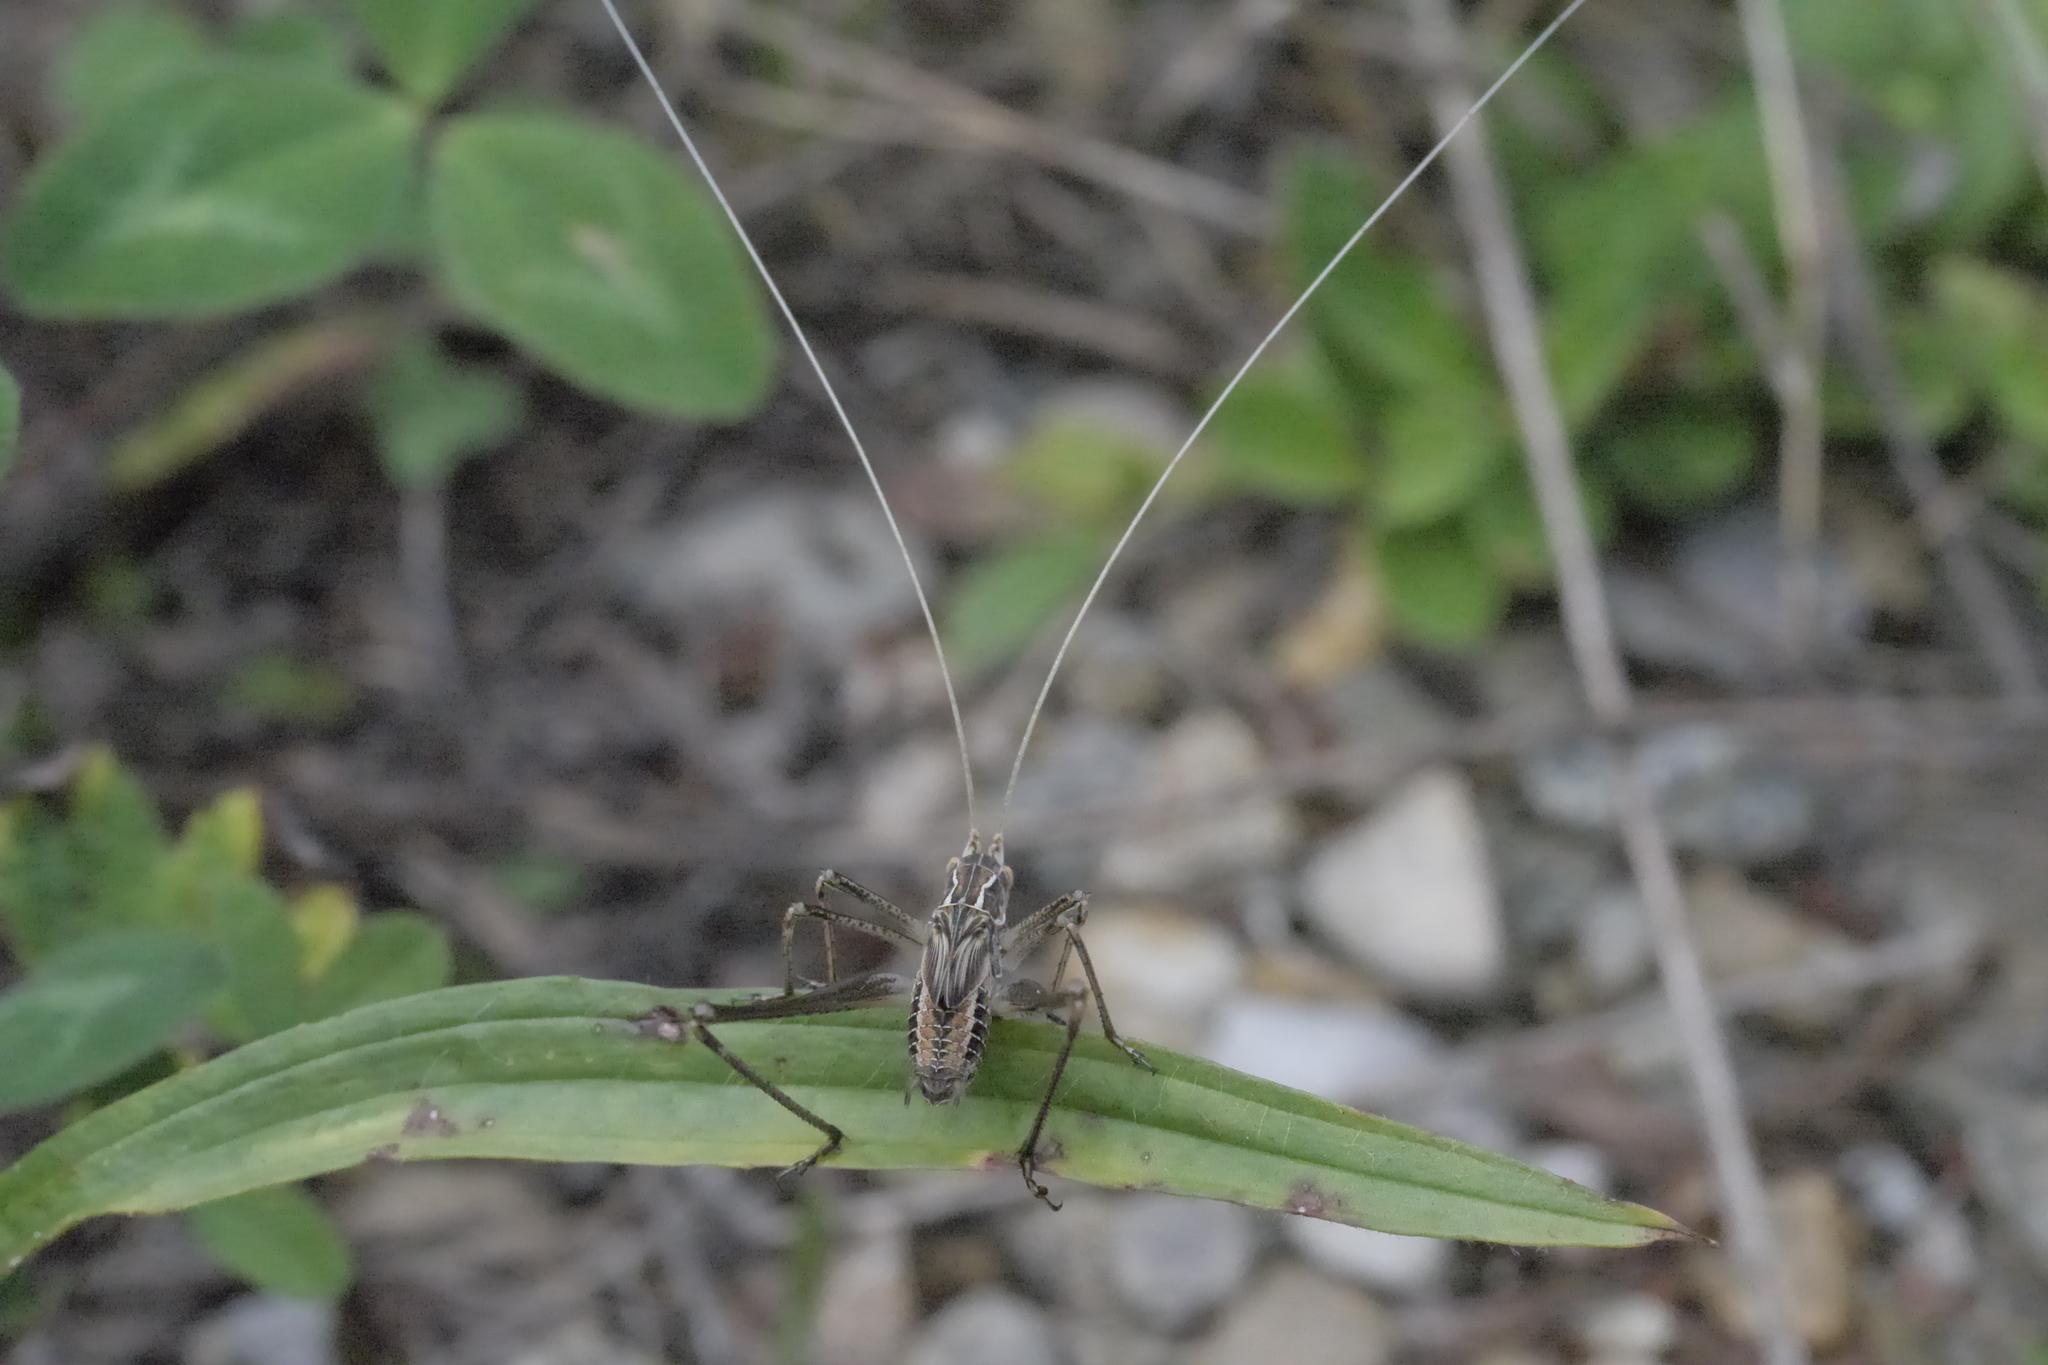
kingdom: Animalia
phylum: Arthropoda
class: Insecta
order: Orthoptera
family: Tettigoniidae
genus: Tylopsis
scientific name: Tylopsis lilifolia
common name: Lily bush-cricket
